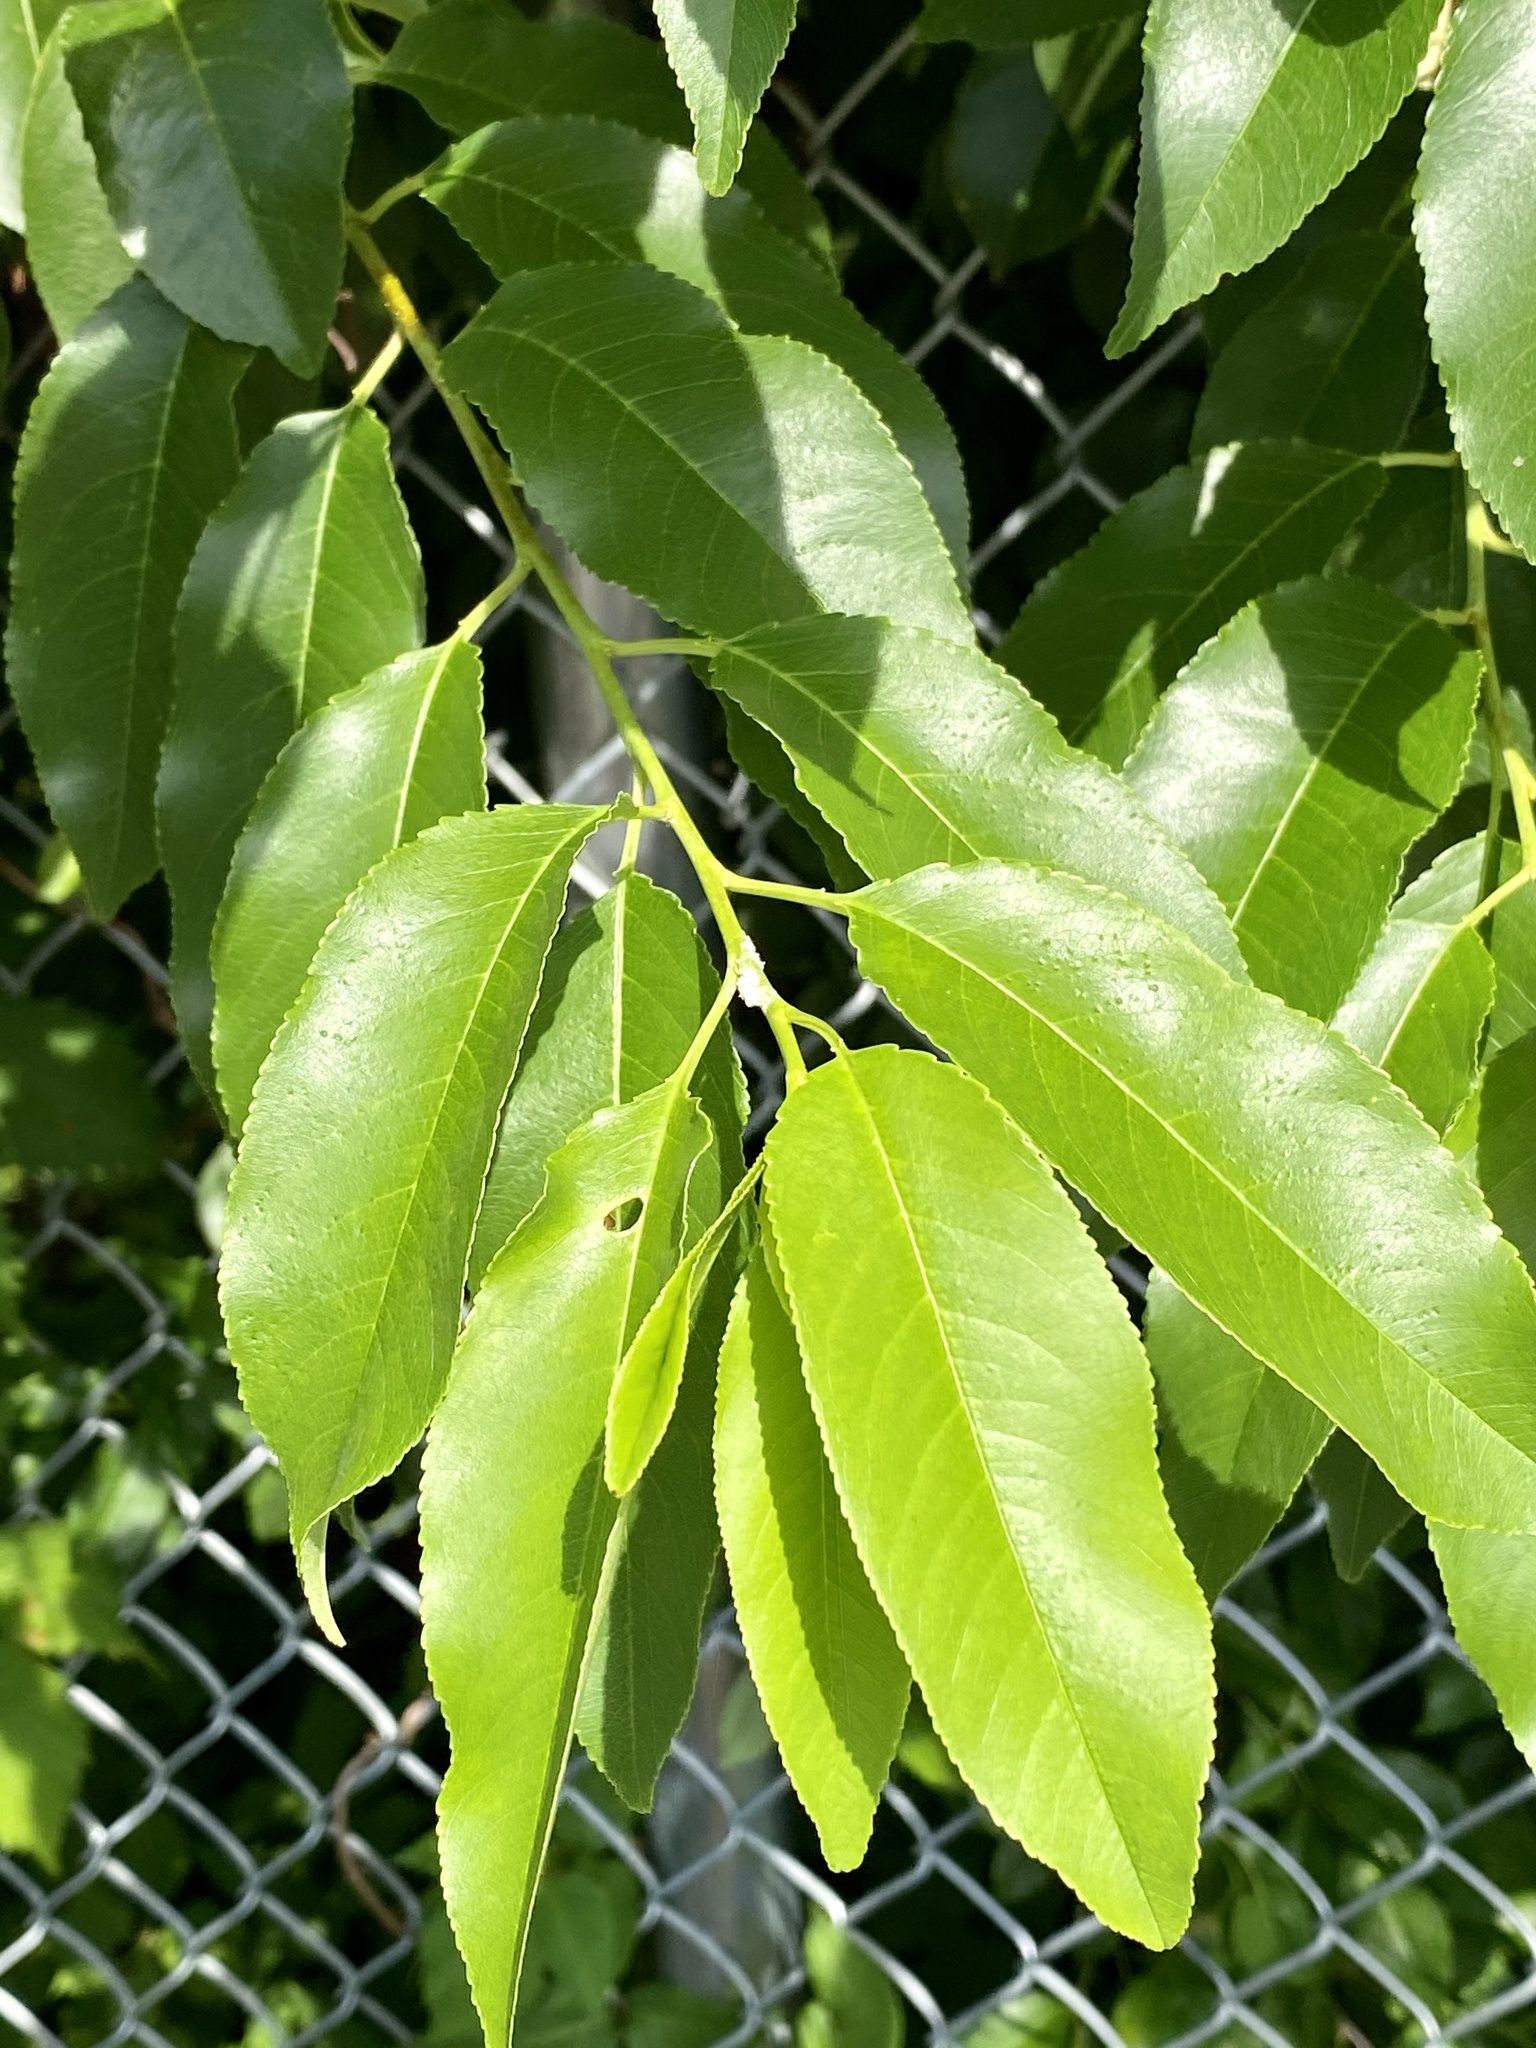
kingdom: Plantae
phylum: Tracheophyta
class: Magnoliopsida
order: Rosales
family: Rosaceae
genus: Prunus
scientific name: Prunus serotina
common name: Black cherry
